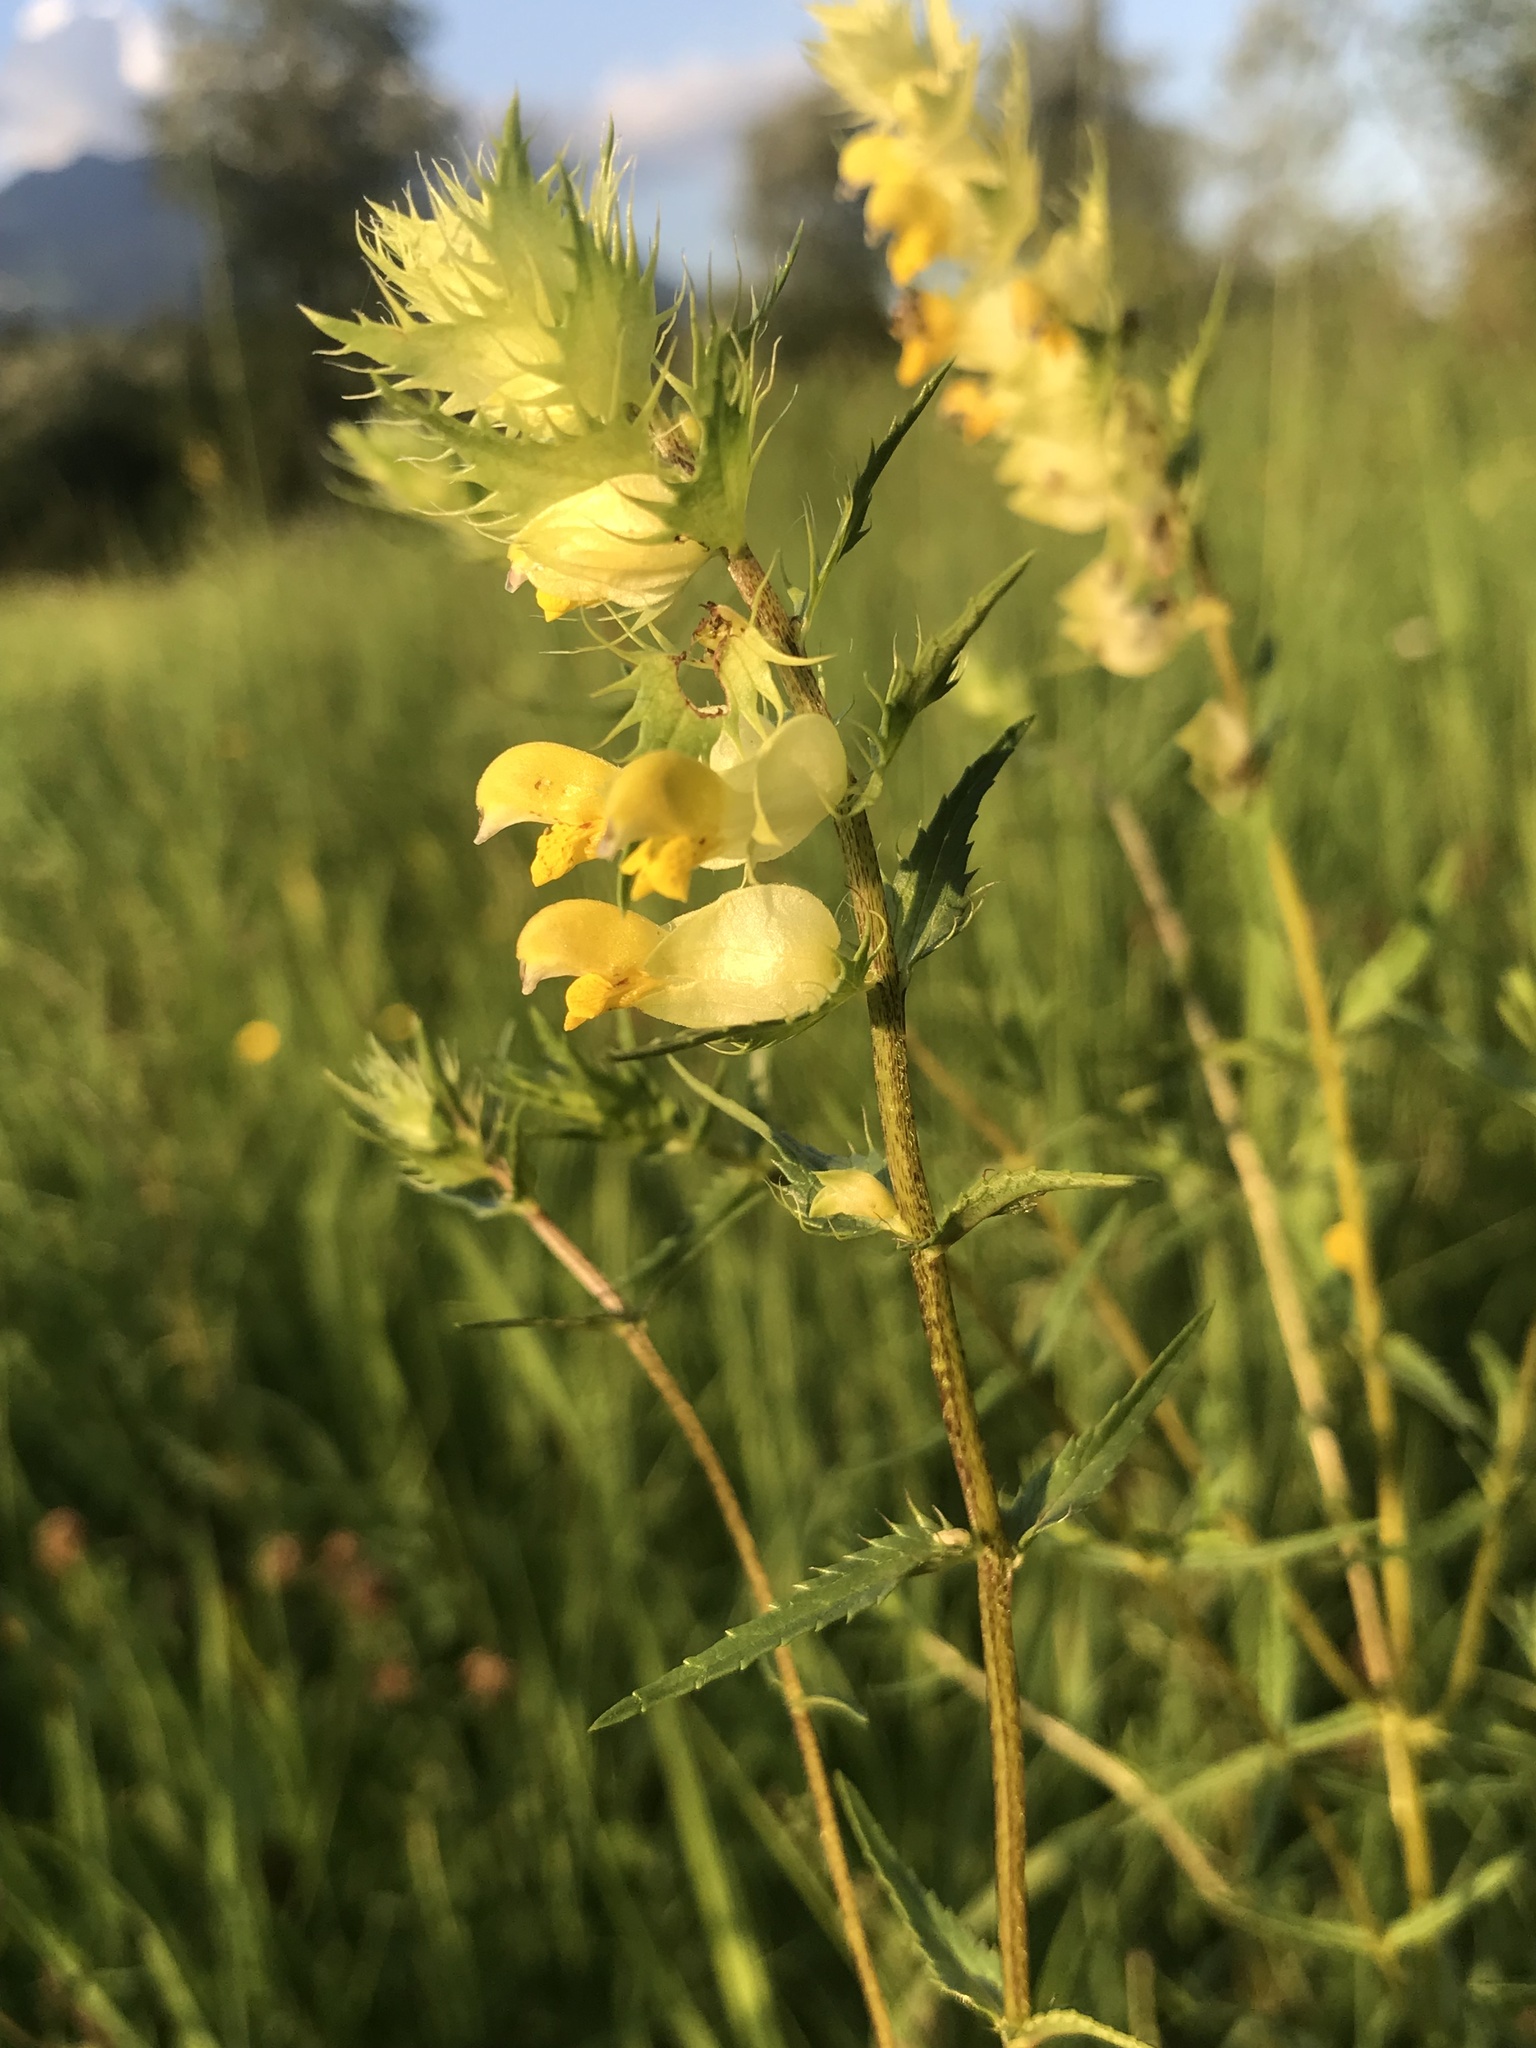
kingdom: Plantae
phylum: Tracheophyta
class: Magnoliopsida
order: Lamiales
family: Orobanchaceae
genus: Rhinanthus
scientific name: Rhinanthus glacialis
